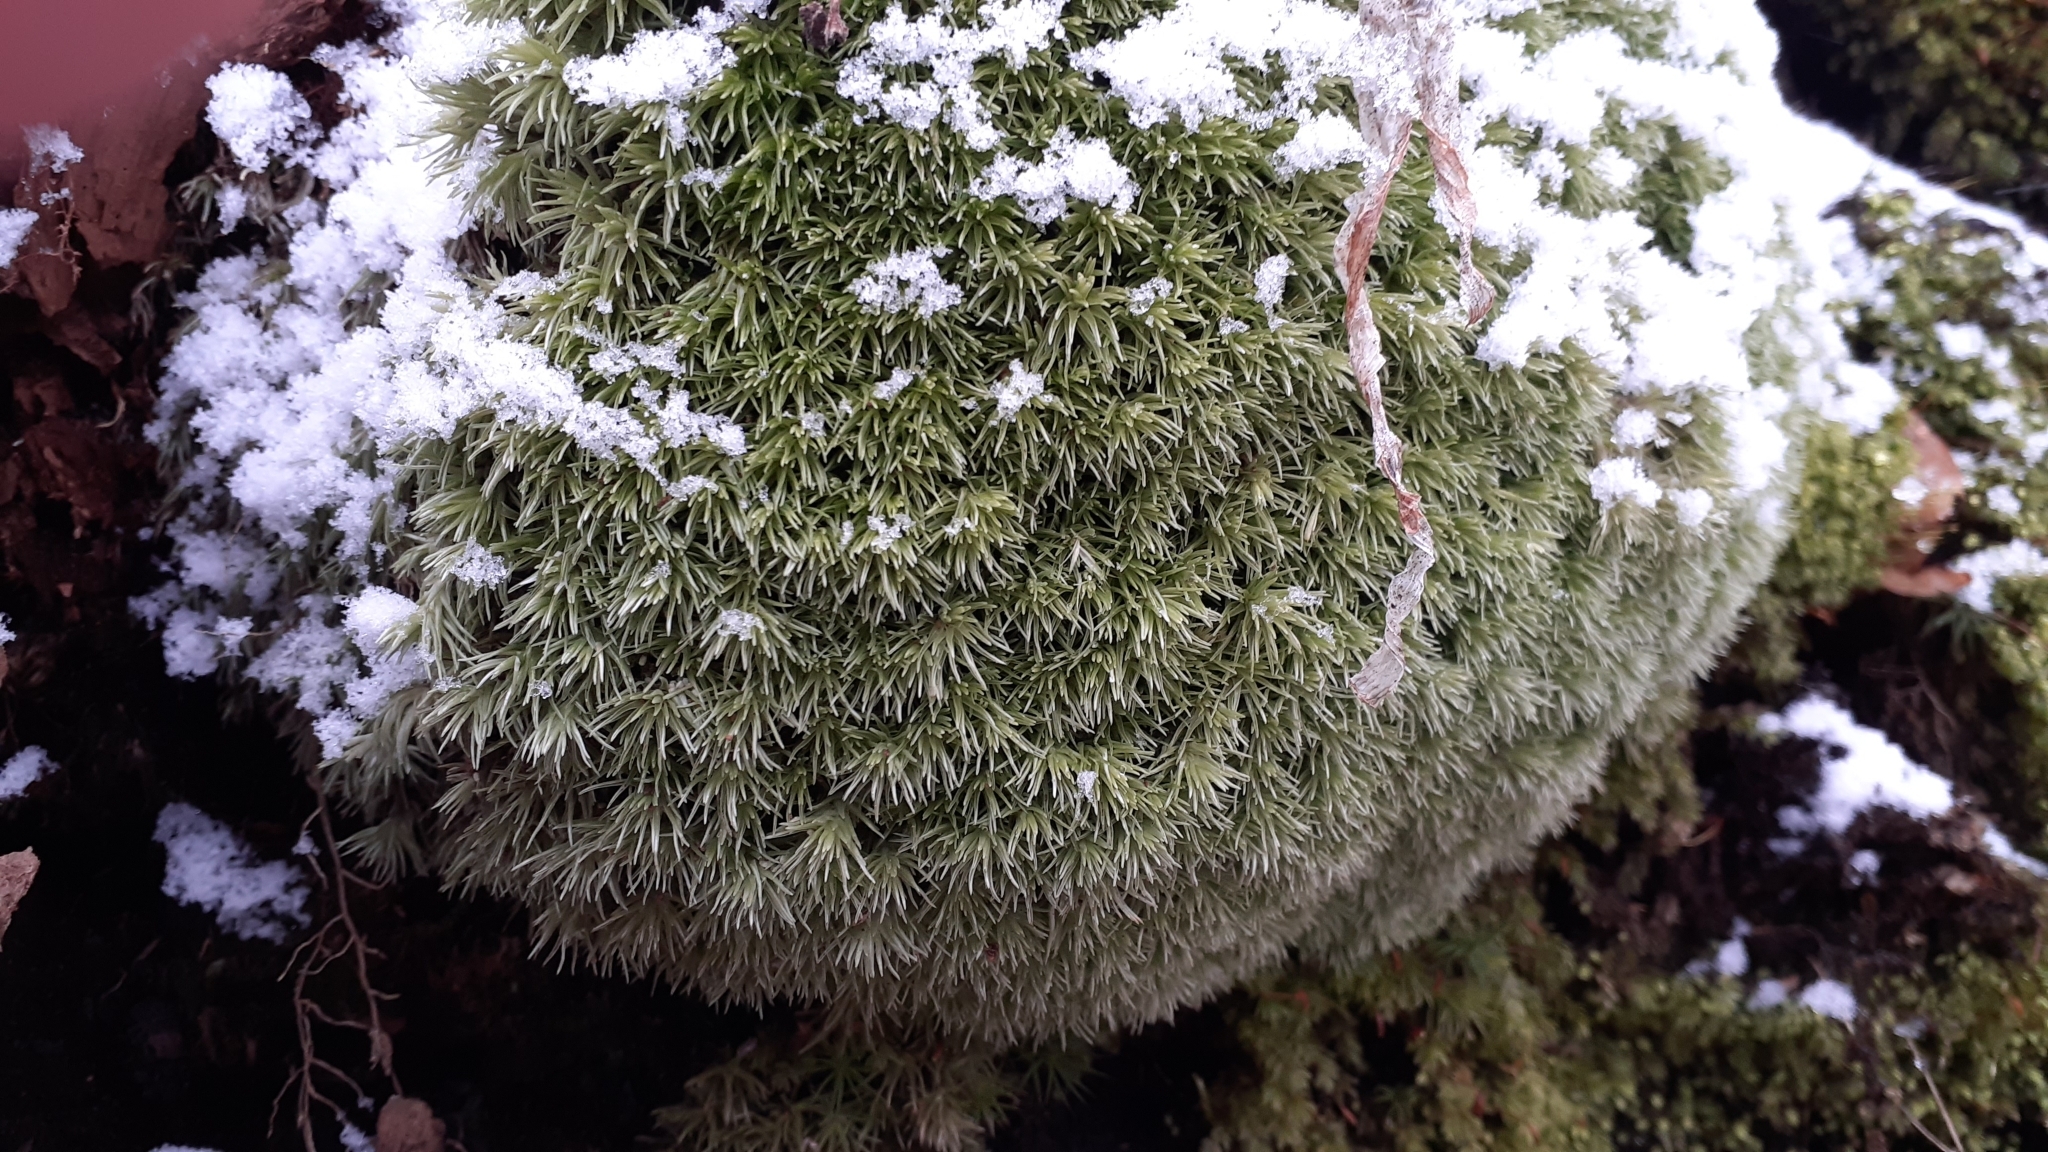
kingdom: Plantae
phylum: Bryophyta
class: Bryopsida
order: Dicranales
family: Leucobryaceae
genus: Leucobryum
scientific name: Leucobryum glaucum
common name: Large white-moss
